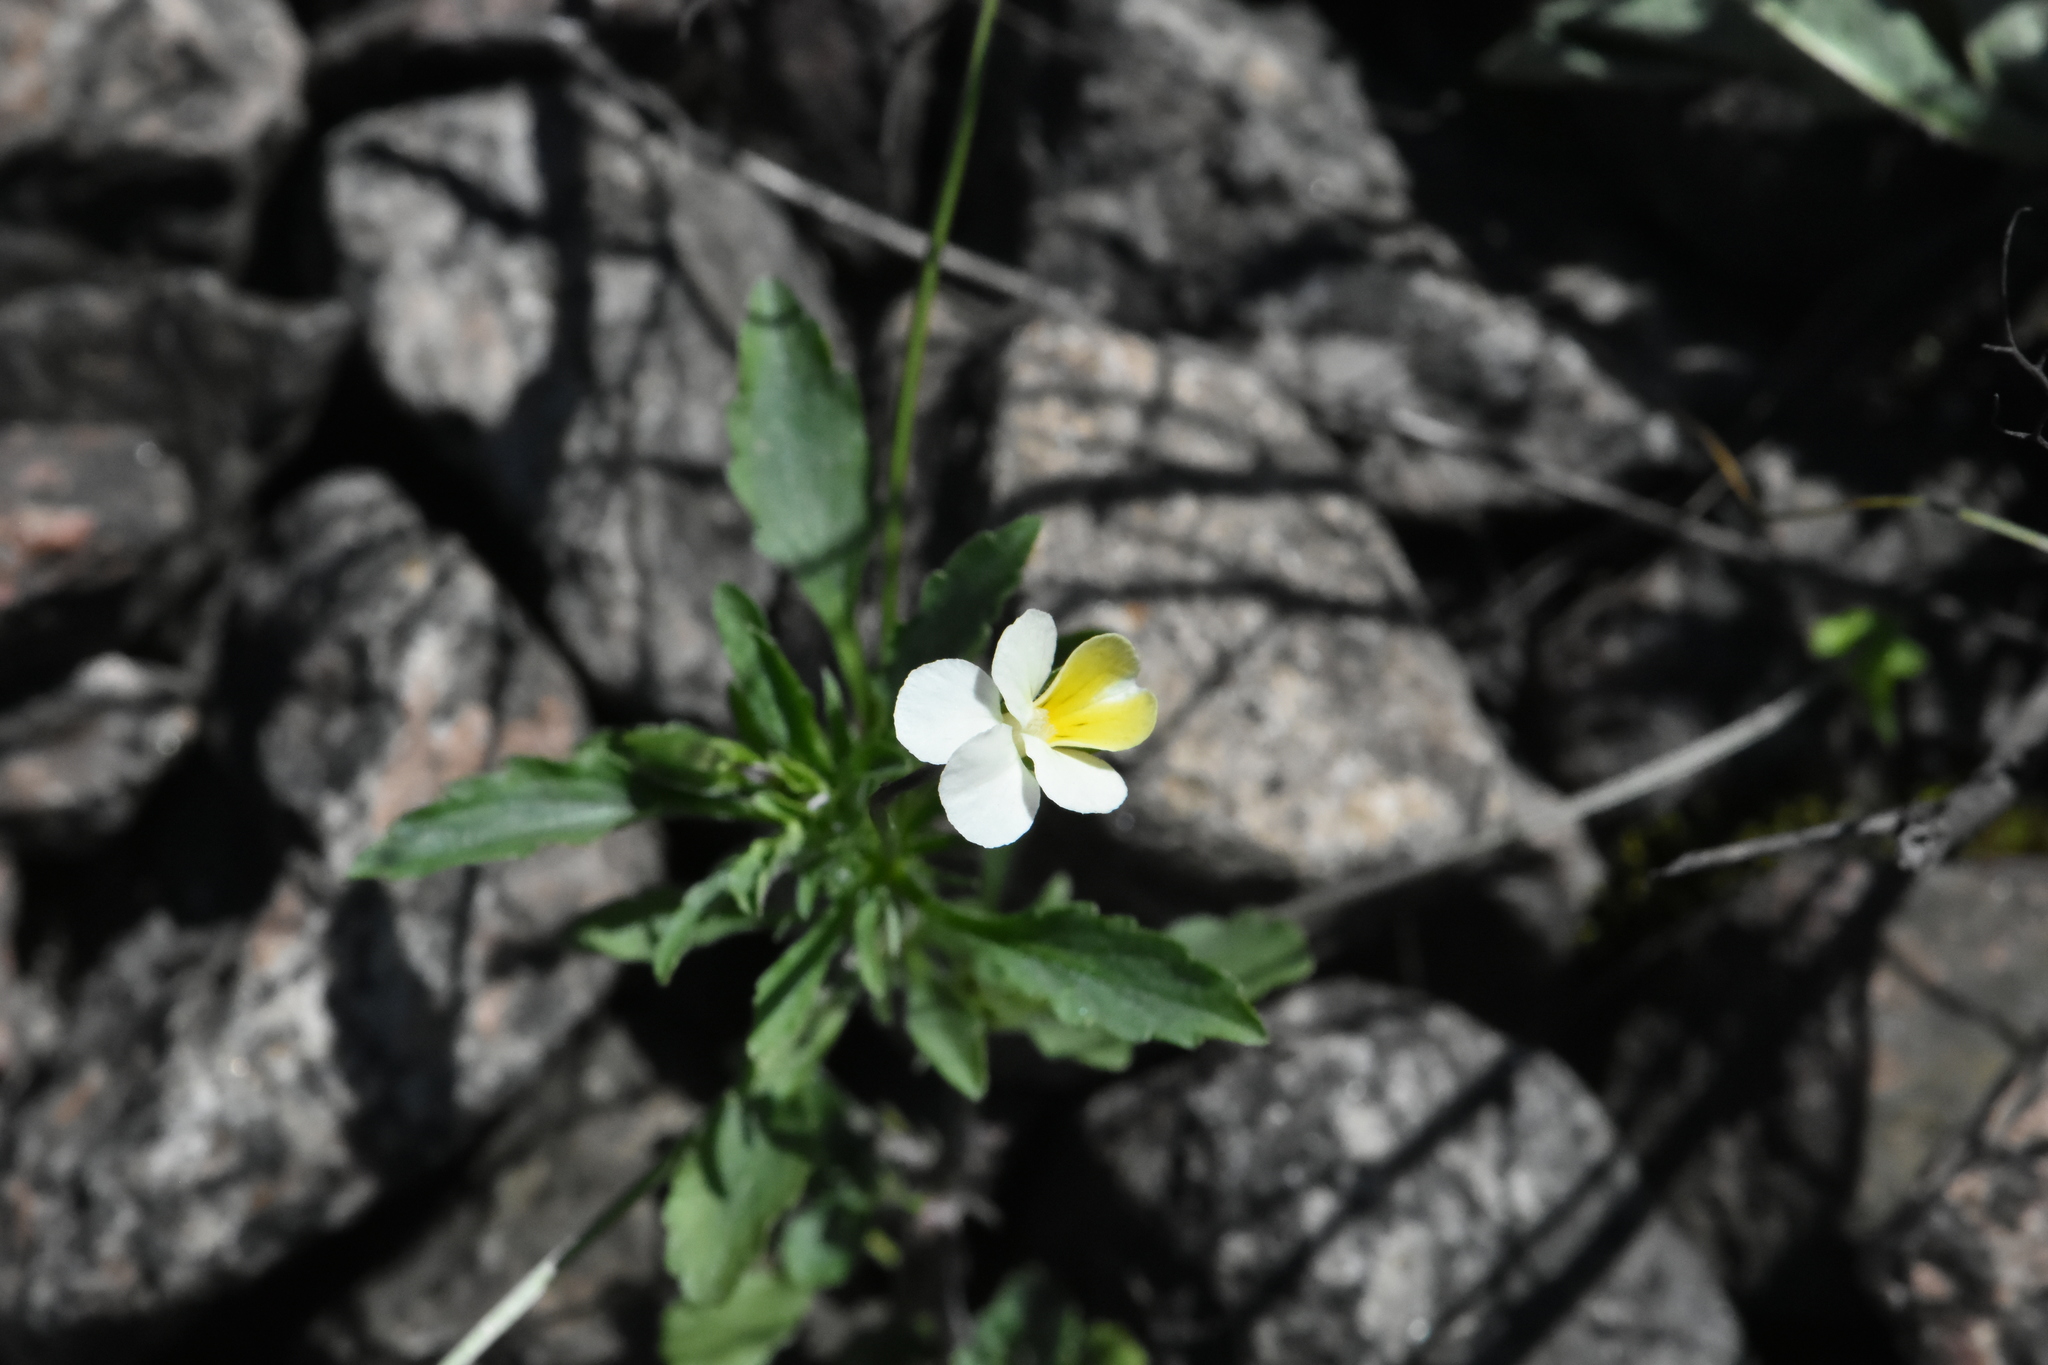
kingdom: Plantae
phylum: Tracheophyta
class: Magnoliopsida
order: Malpighiales
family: Violaceae
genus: Viola
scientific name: Viola arvensis
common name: Field pansy
